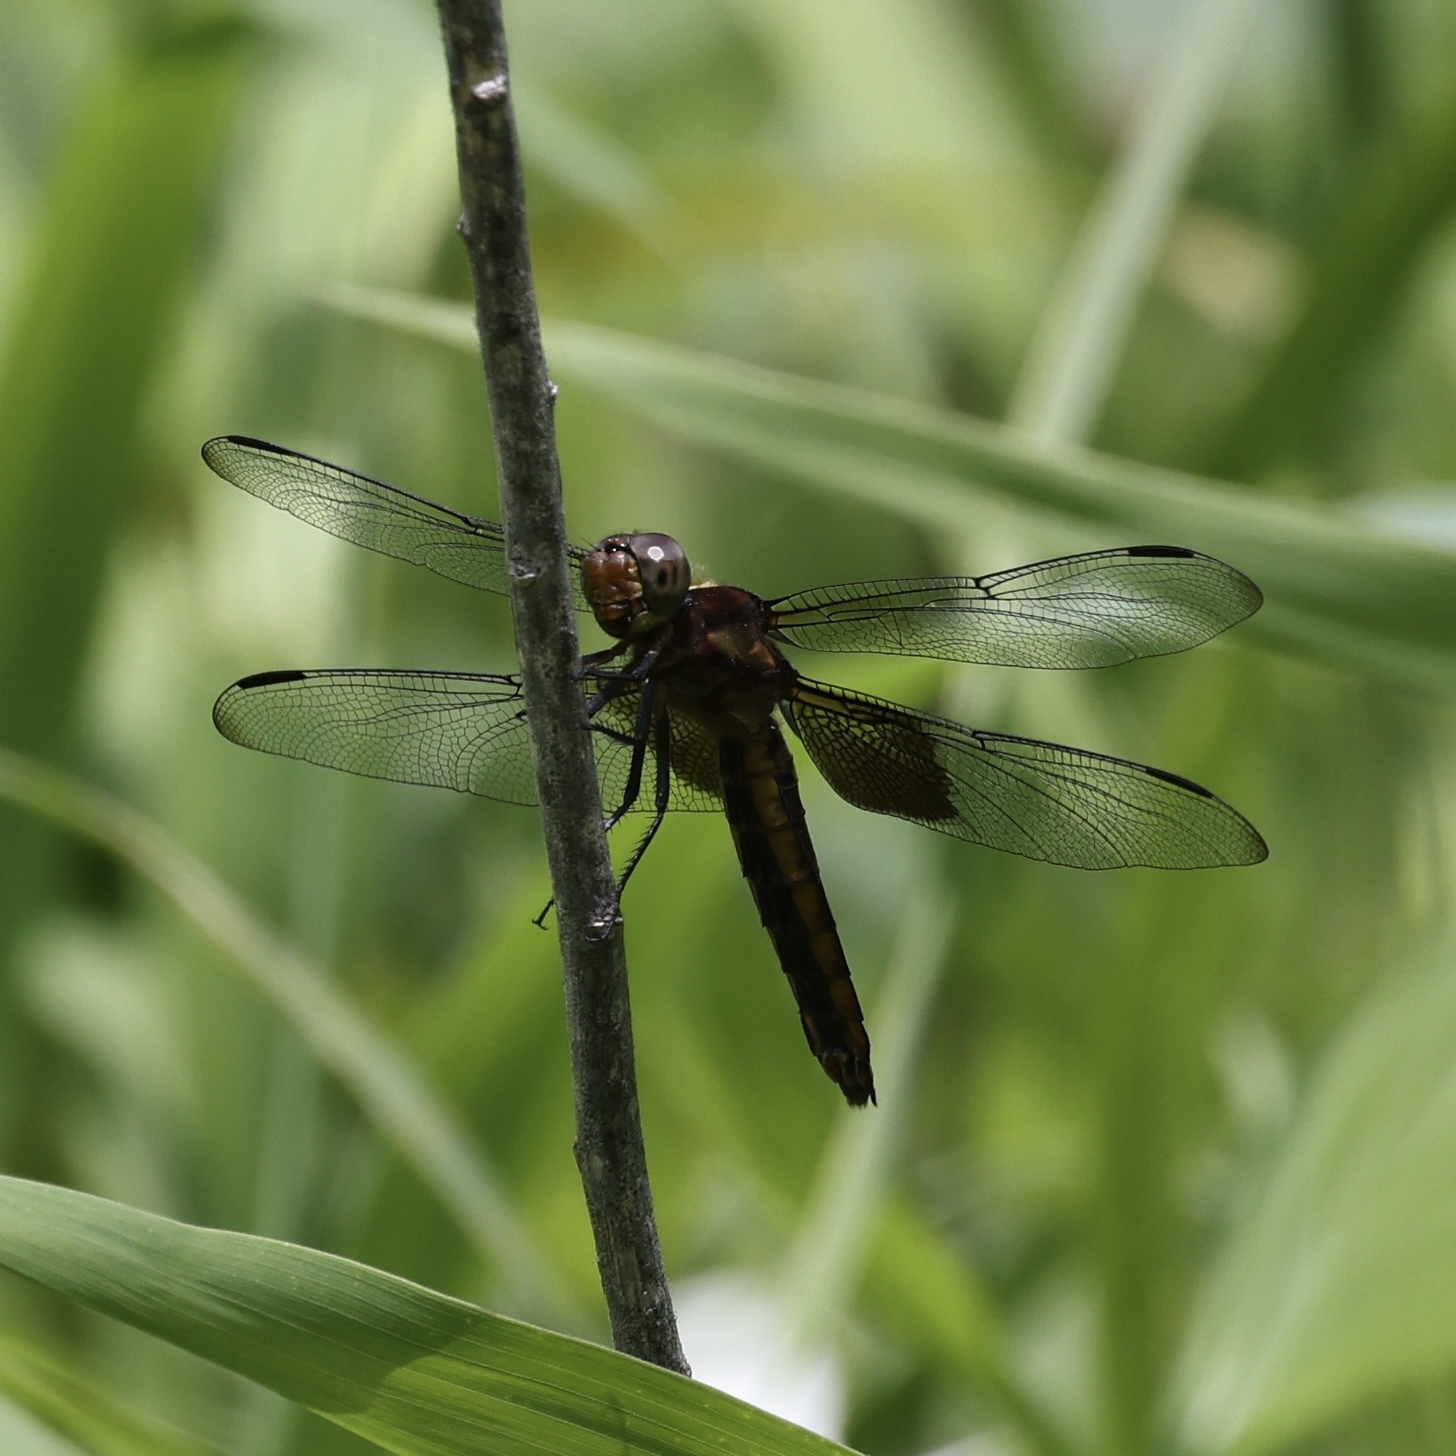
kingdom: Animalia
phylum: Arthropoda
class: Insecta
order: Odonata
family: Libellulidae
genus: Libellula
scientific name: Libellula luctuosa
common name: Widow skimmer
